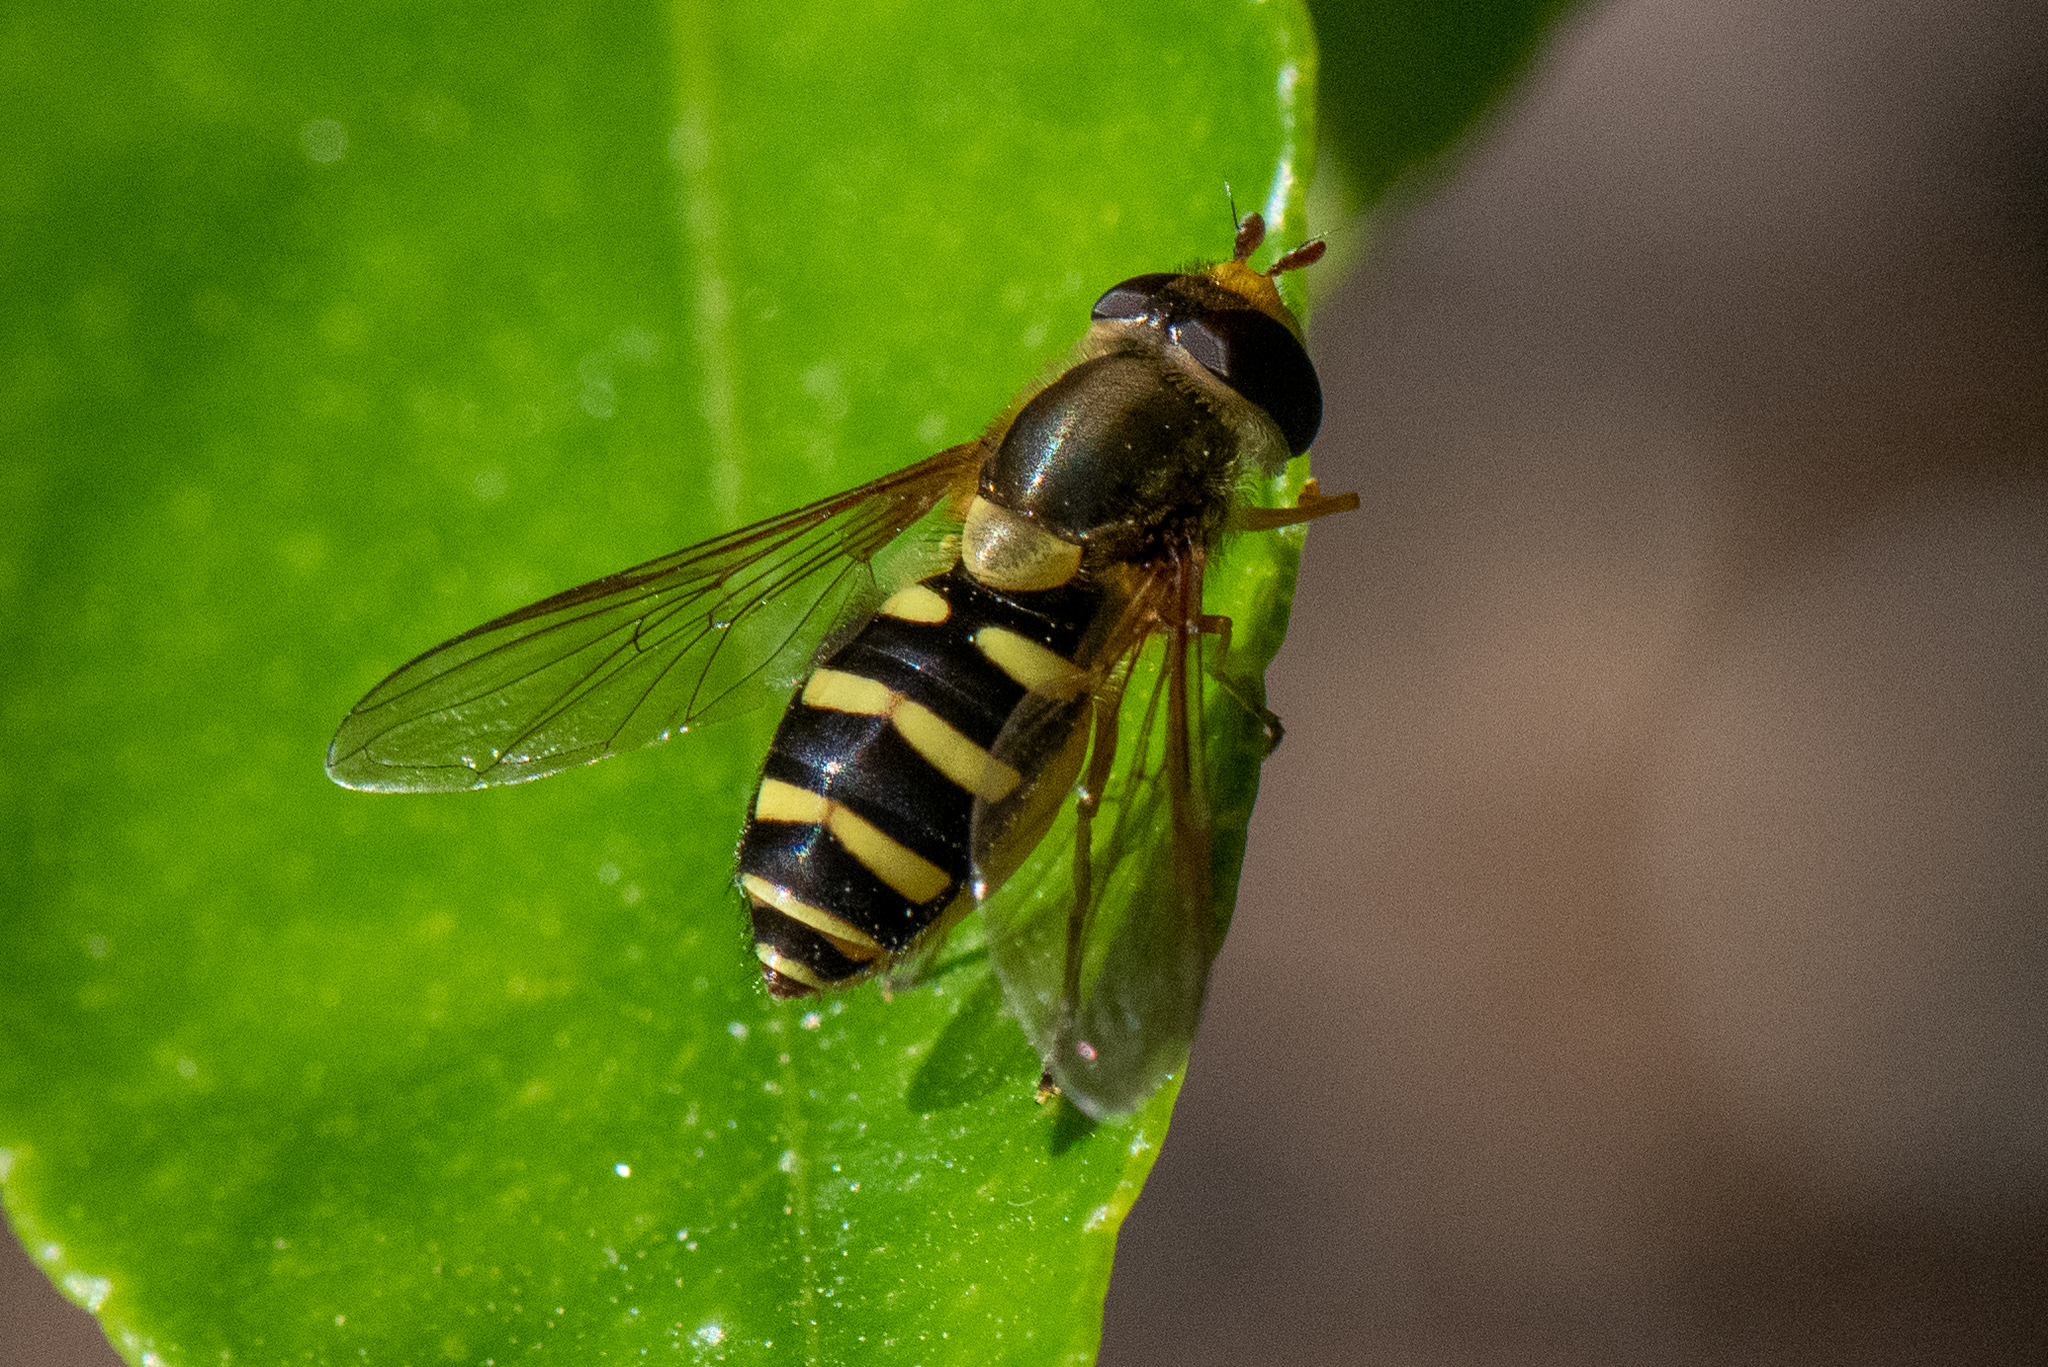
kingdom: Animalia
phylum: Arthropoda
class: Insecta
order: Diptera
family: Syrphidae
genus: Syrphus
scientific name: Syrphus opinator
